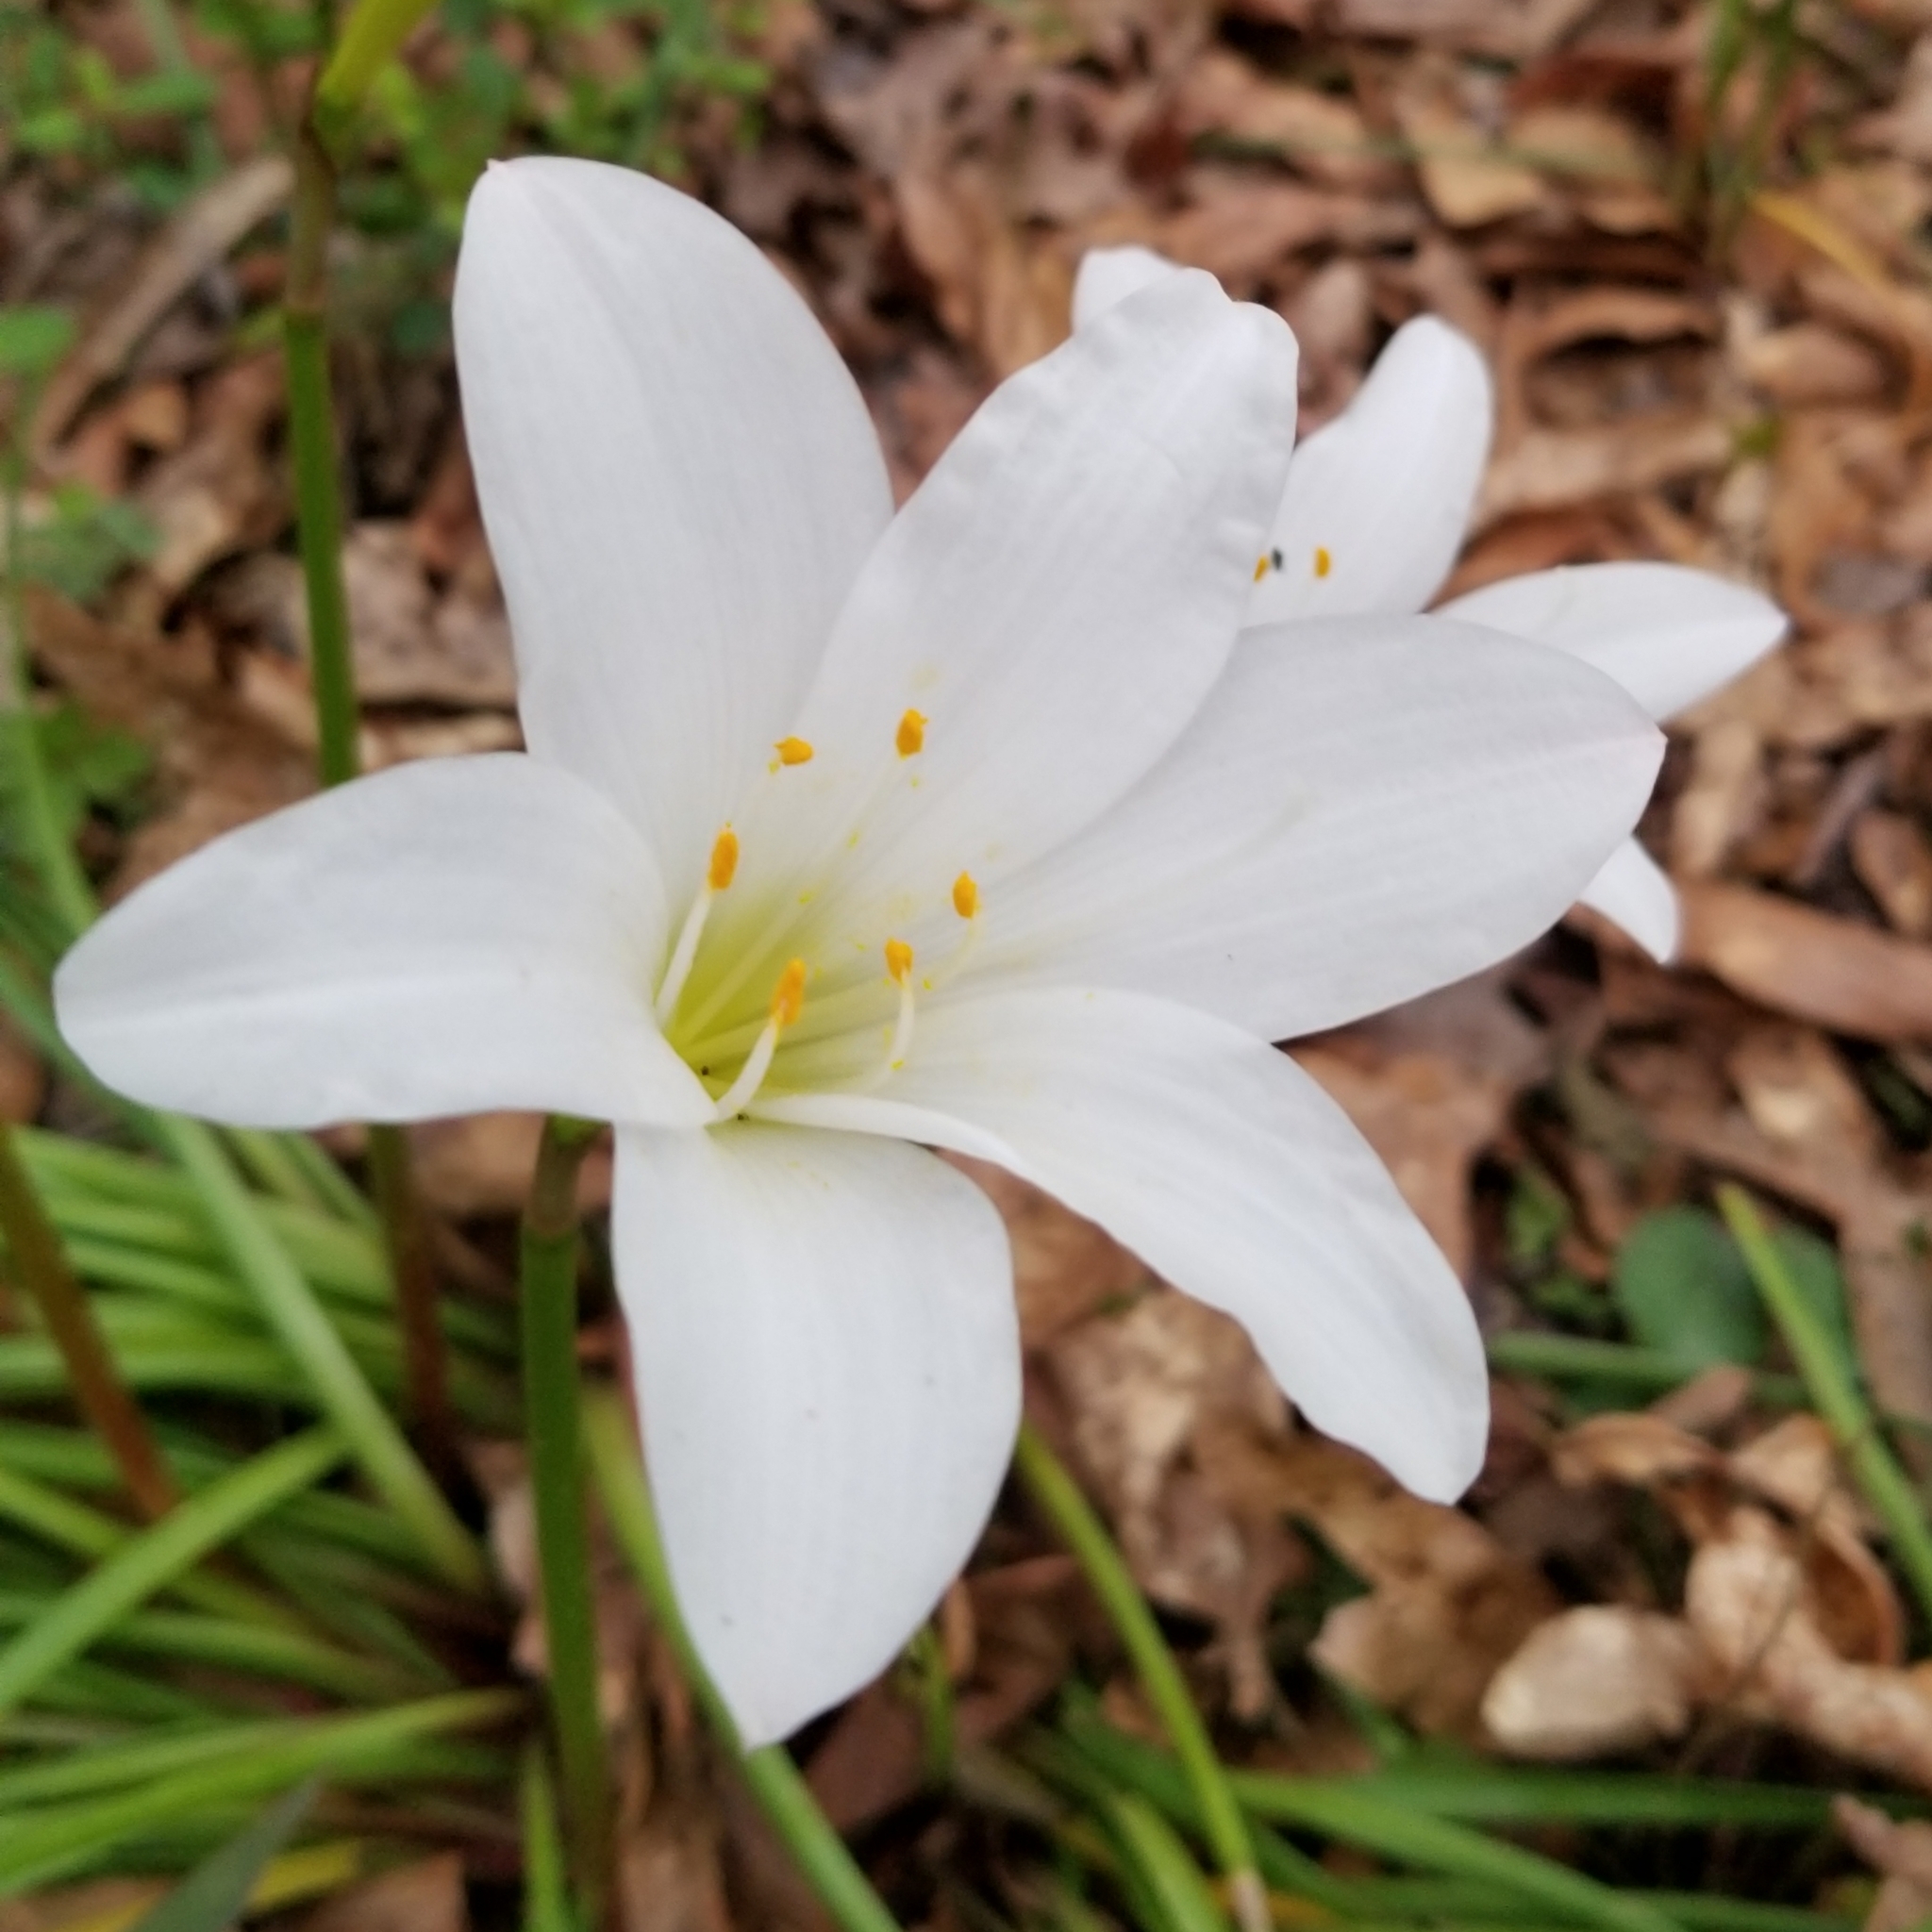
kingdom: Plantae
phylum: Tracheophyta
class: Liliopsida
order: Asparagales
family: Amaryllidaceae
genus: Zephyranthes
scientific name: Zephyranthes atamasco
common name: Atamasco lily
